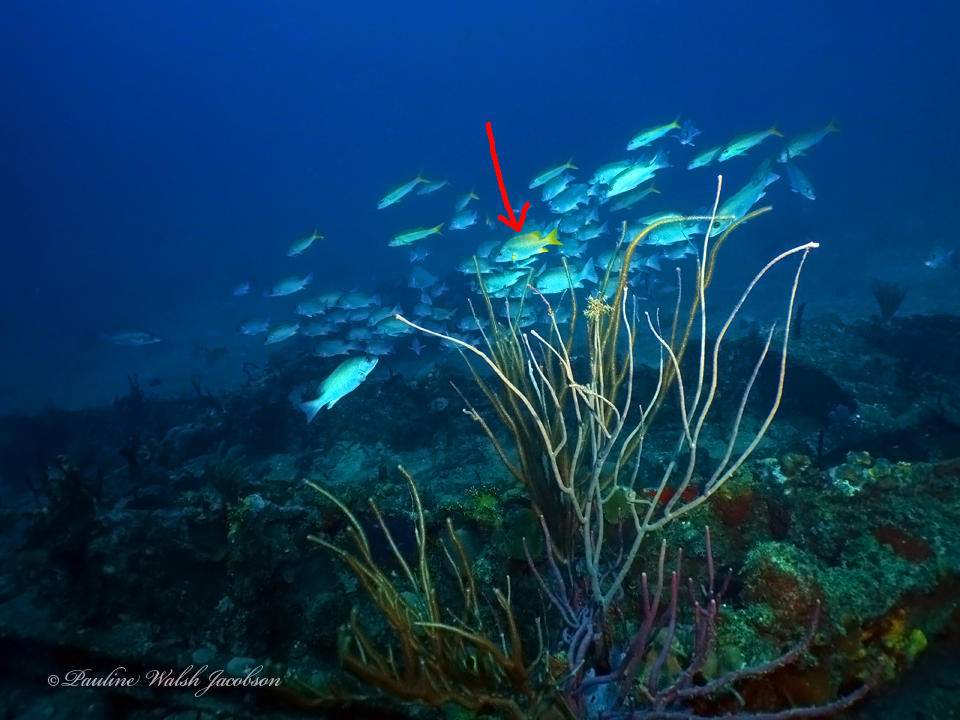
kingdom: Animalia
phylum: Chordata
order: Perciformes
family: Lutjanidae
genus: Lutjanus
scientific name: Lutjanus apodus
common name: Schoolmaster
